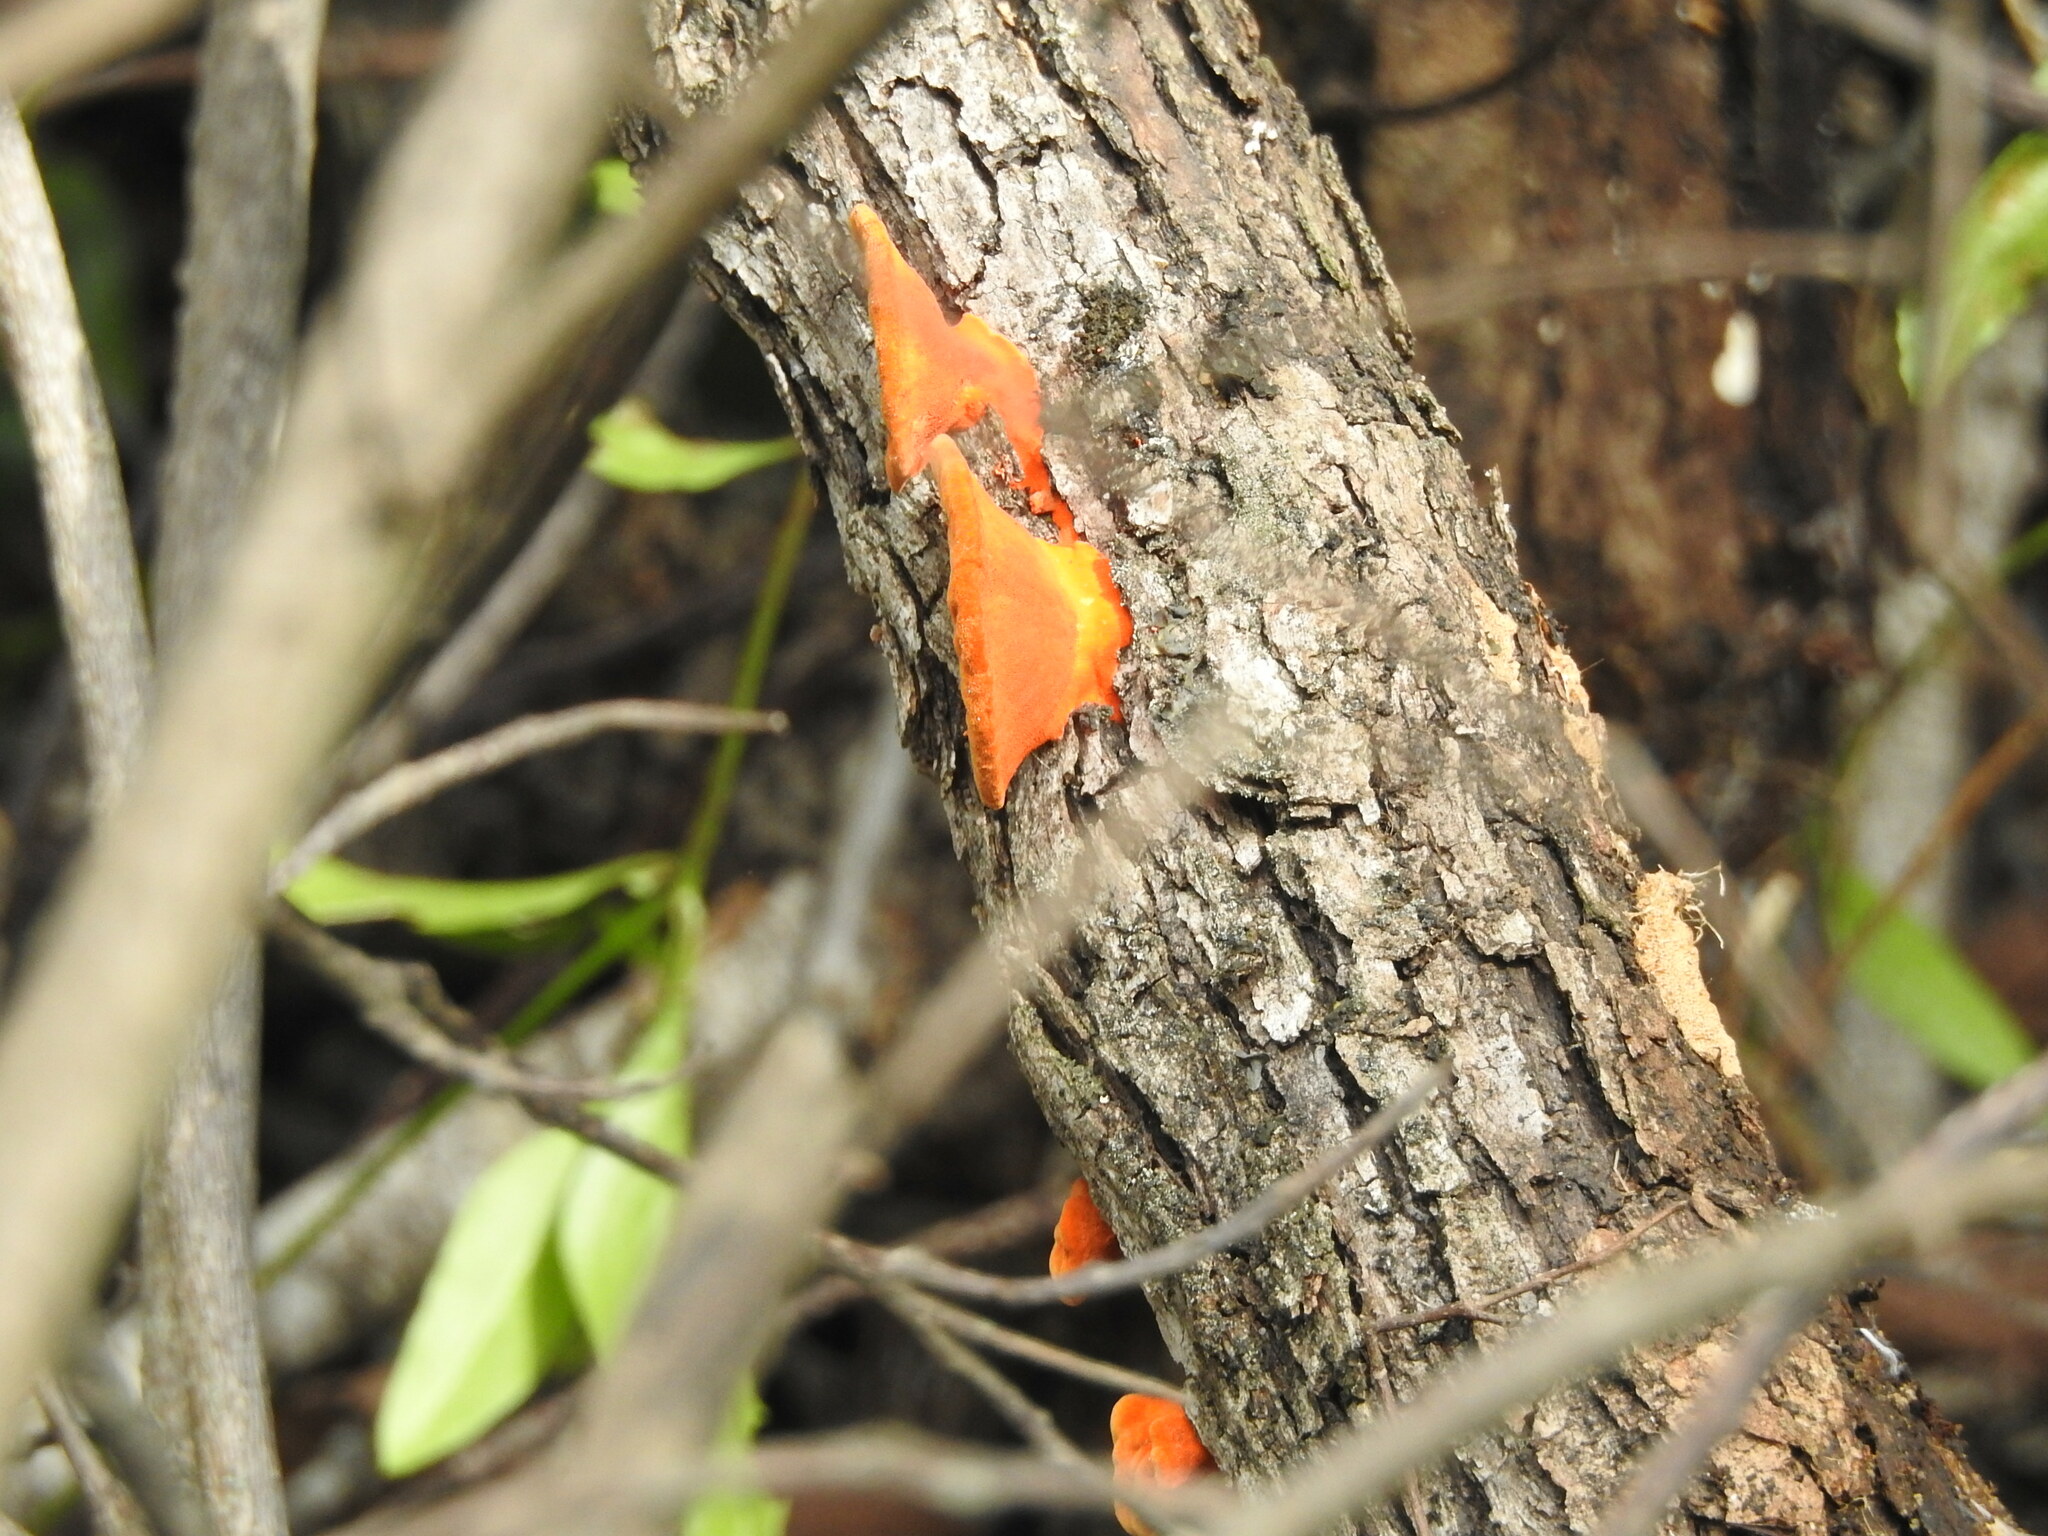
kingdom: Fungi
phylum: Basidiomycota
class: Agaricomycetes
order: Polyporales
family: Polyporaceae
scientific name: Polyporaceae
